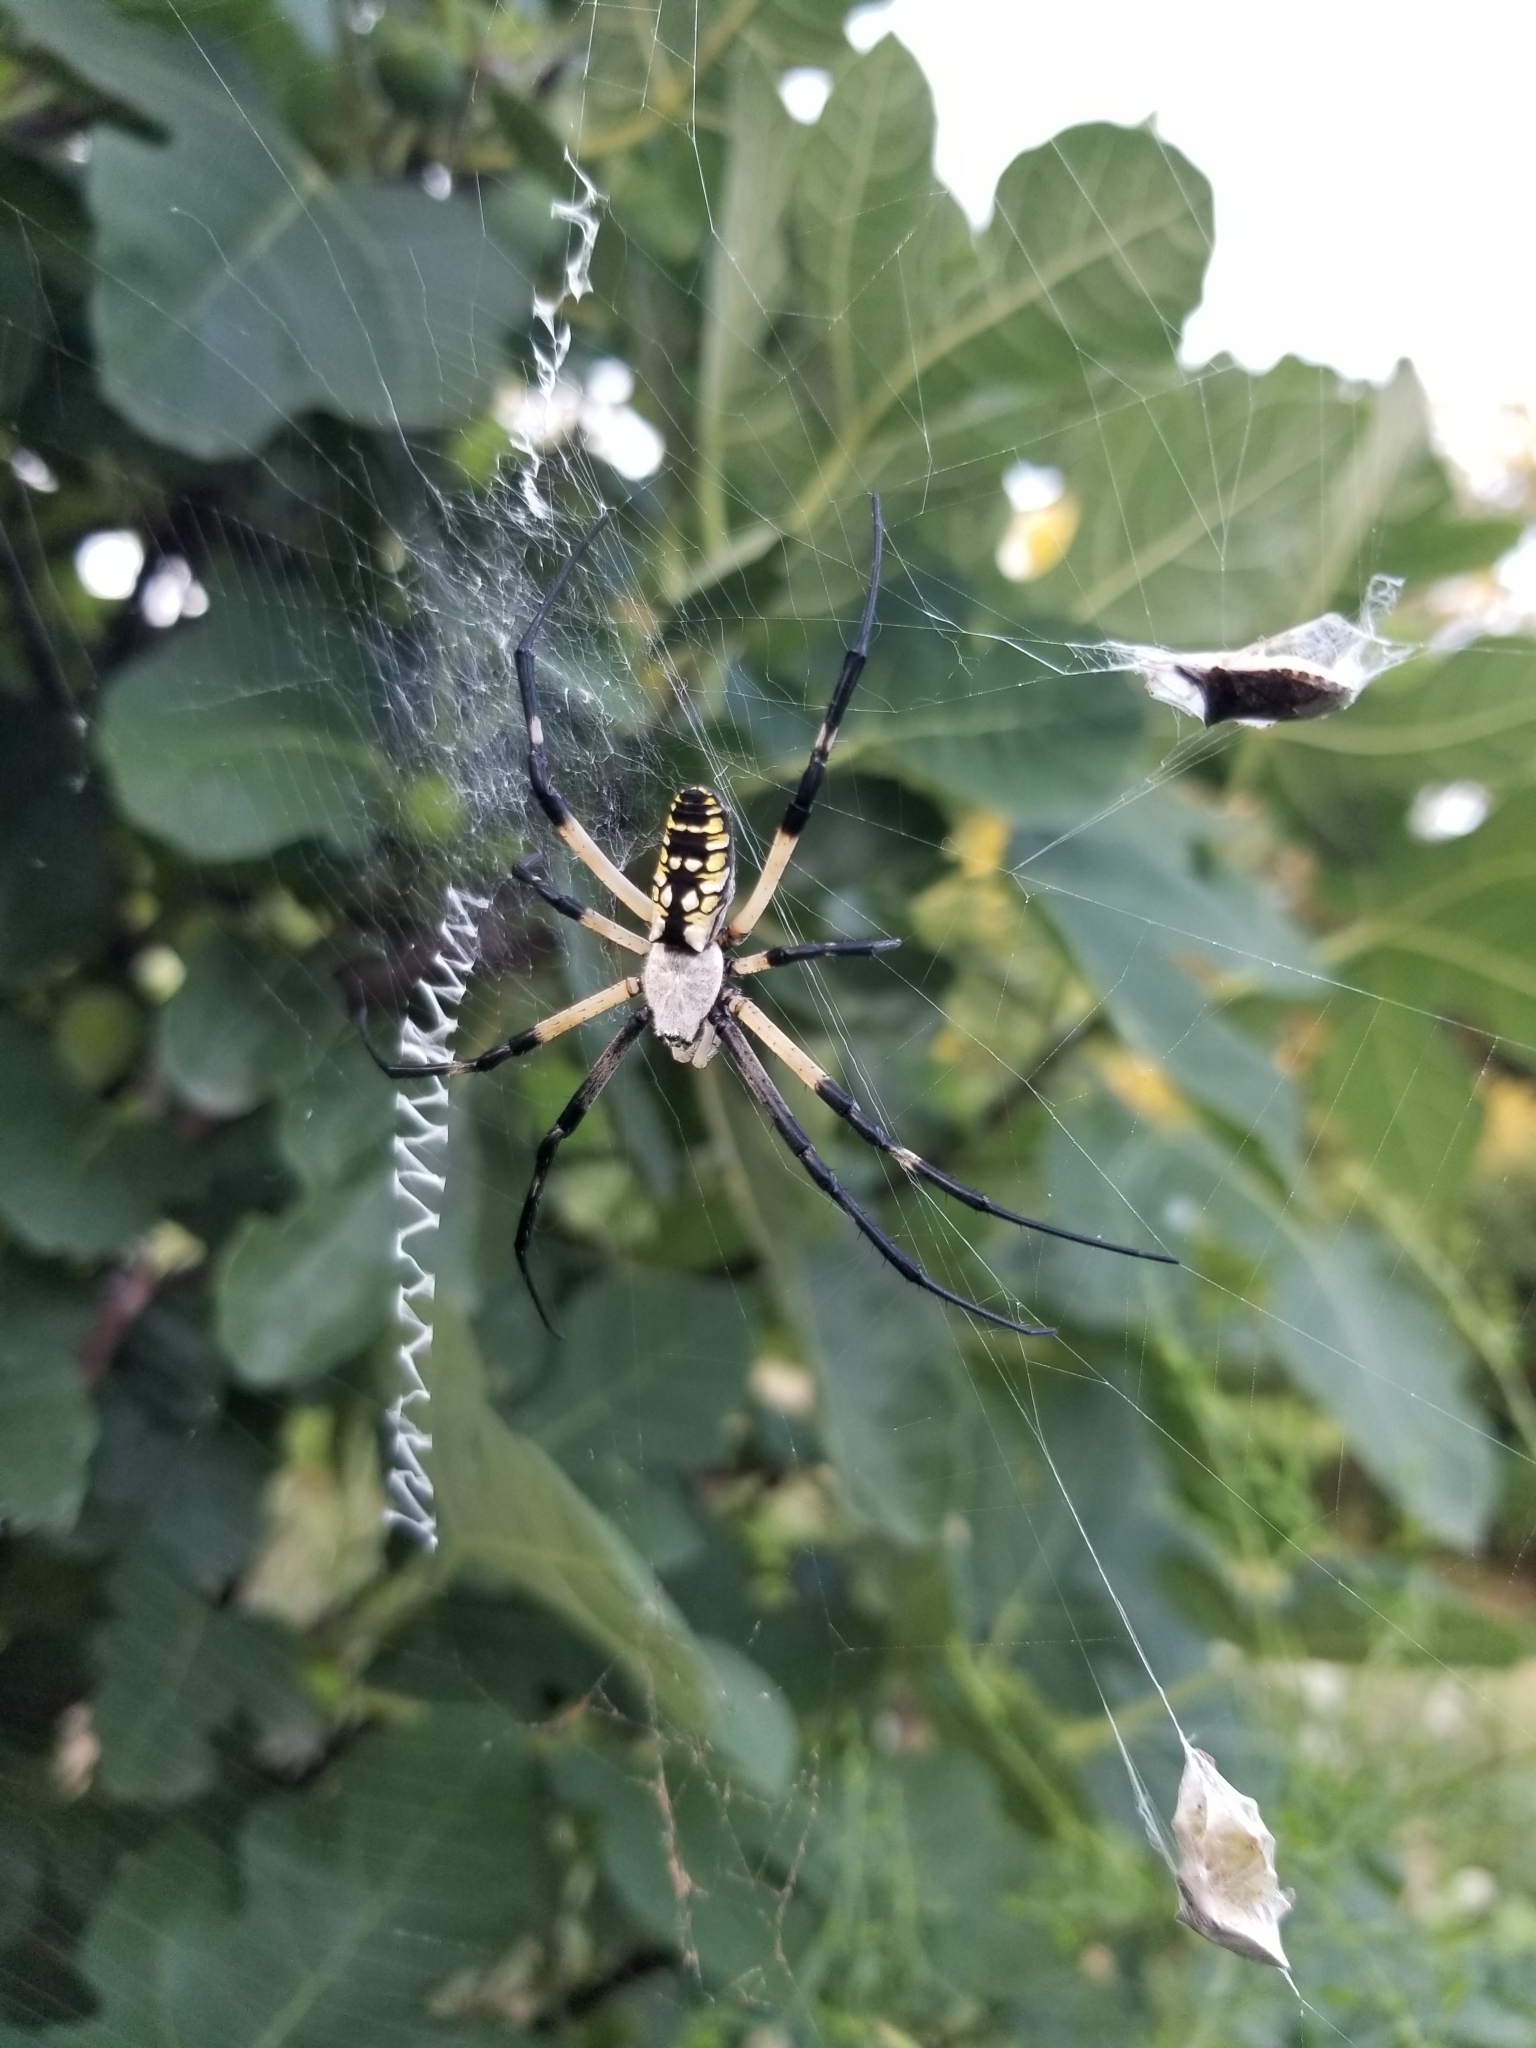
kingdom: Animalia
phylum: Arthropoda
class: Arachnida
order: Araneae
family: Araneidae
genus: Argiope
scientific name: Argiope aurantia
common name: Orb weavers
